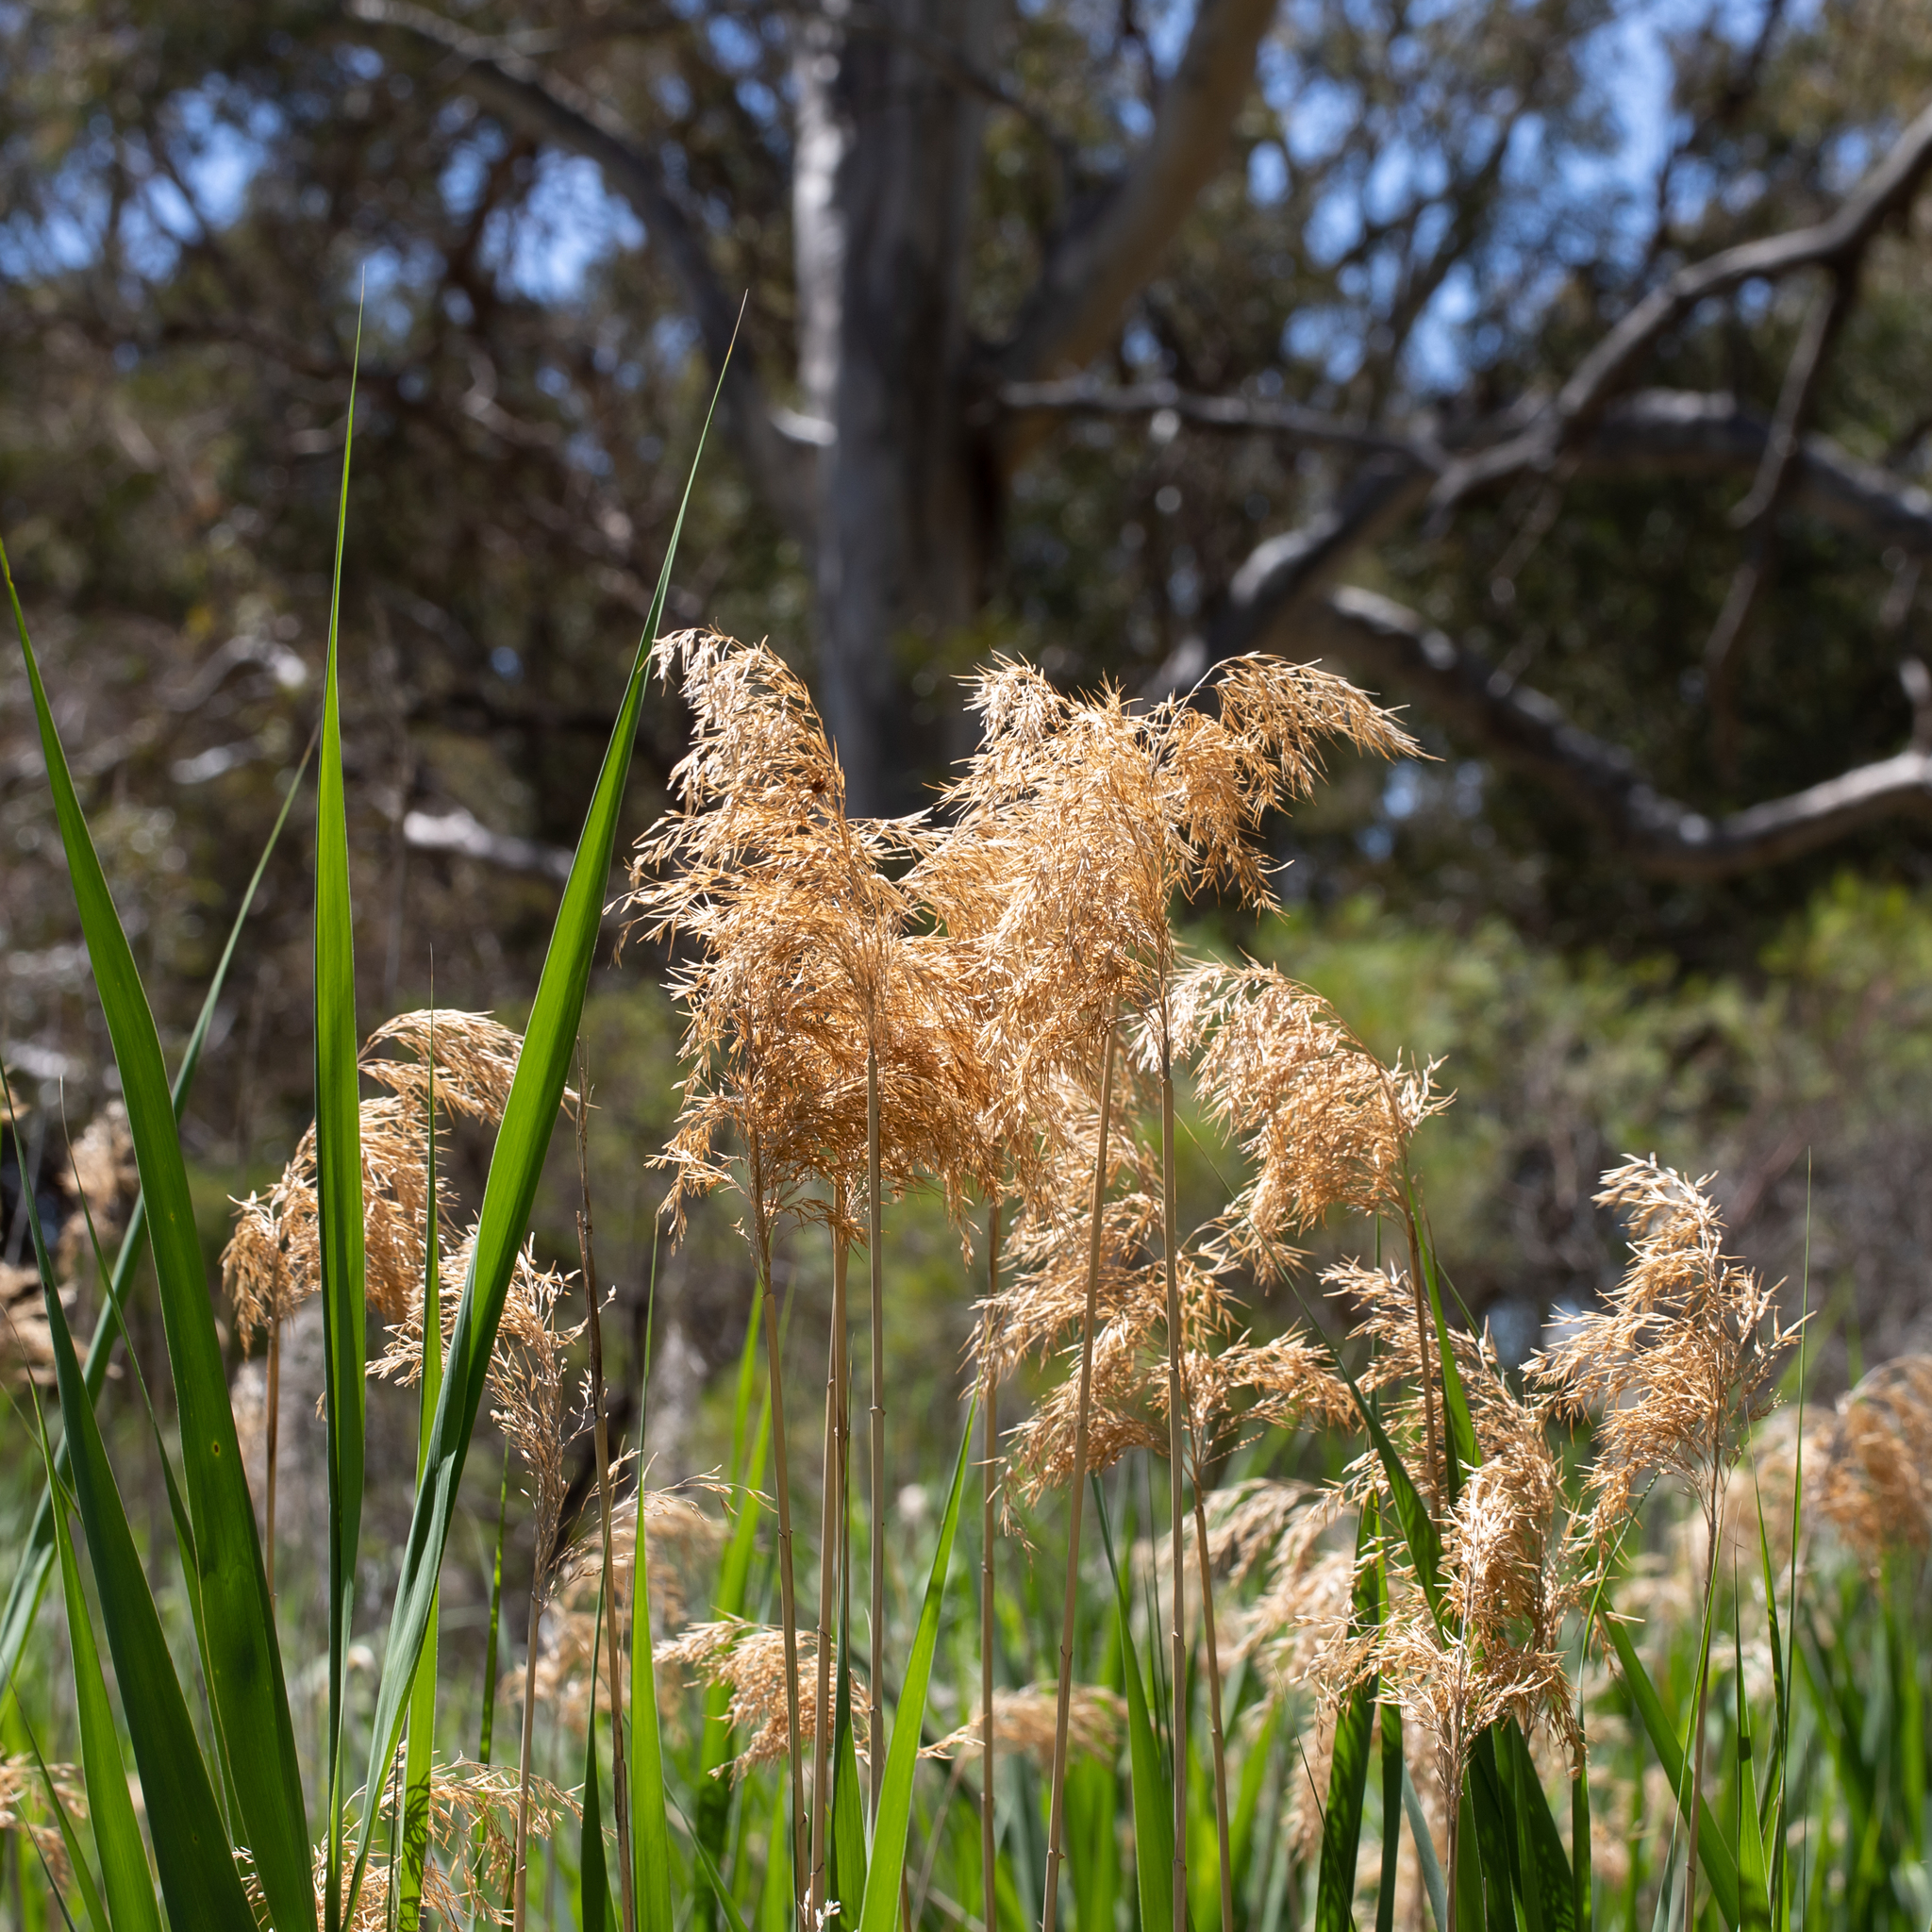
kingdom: Plantae
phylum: Tracheophyta
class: Liliopsida
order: Poales
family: Poaceae
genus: Phragmites
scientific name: Phragmites australis
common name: Common reed
